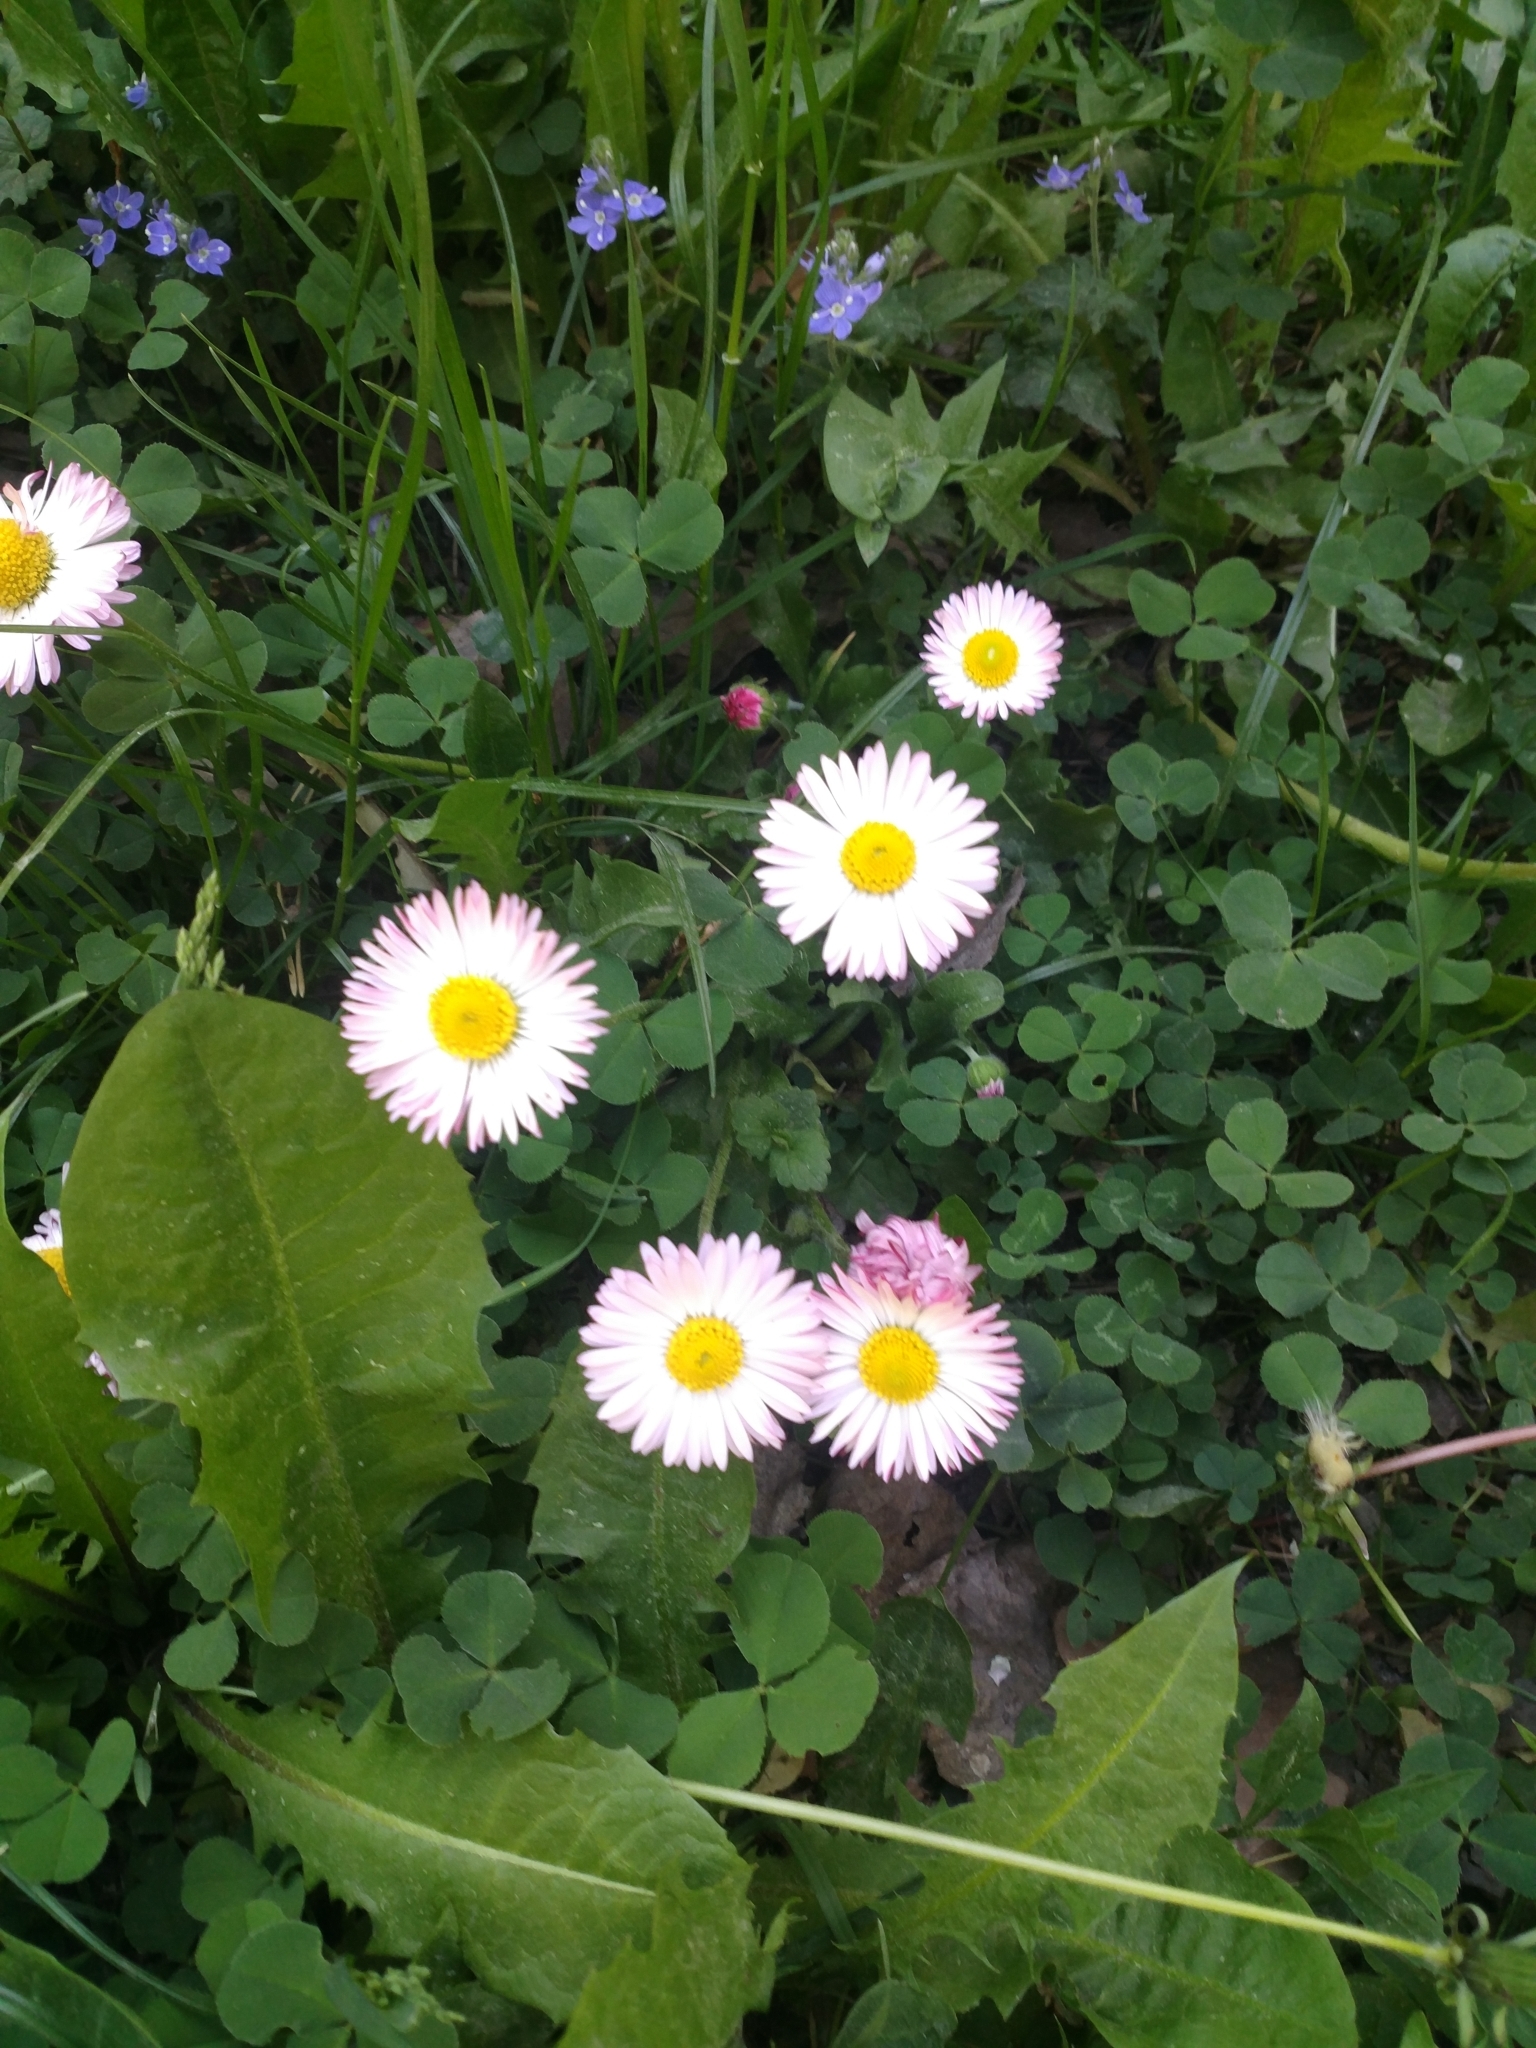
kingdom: Plantae
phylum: Tracheophyta
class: Magnoliopsida
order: Asterales
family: Asteraceae
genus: Bellis
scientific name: Bellis perennis
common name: Lawndaisy
